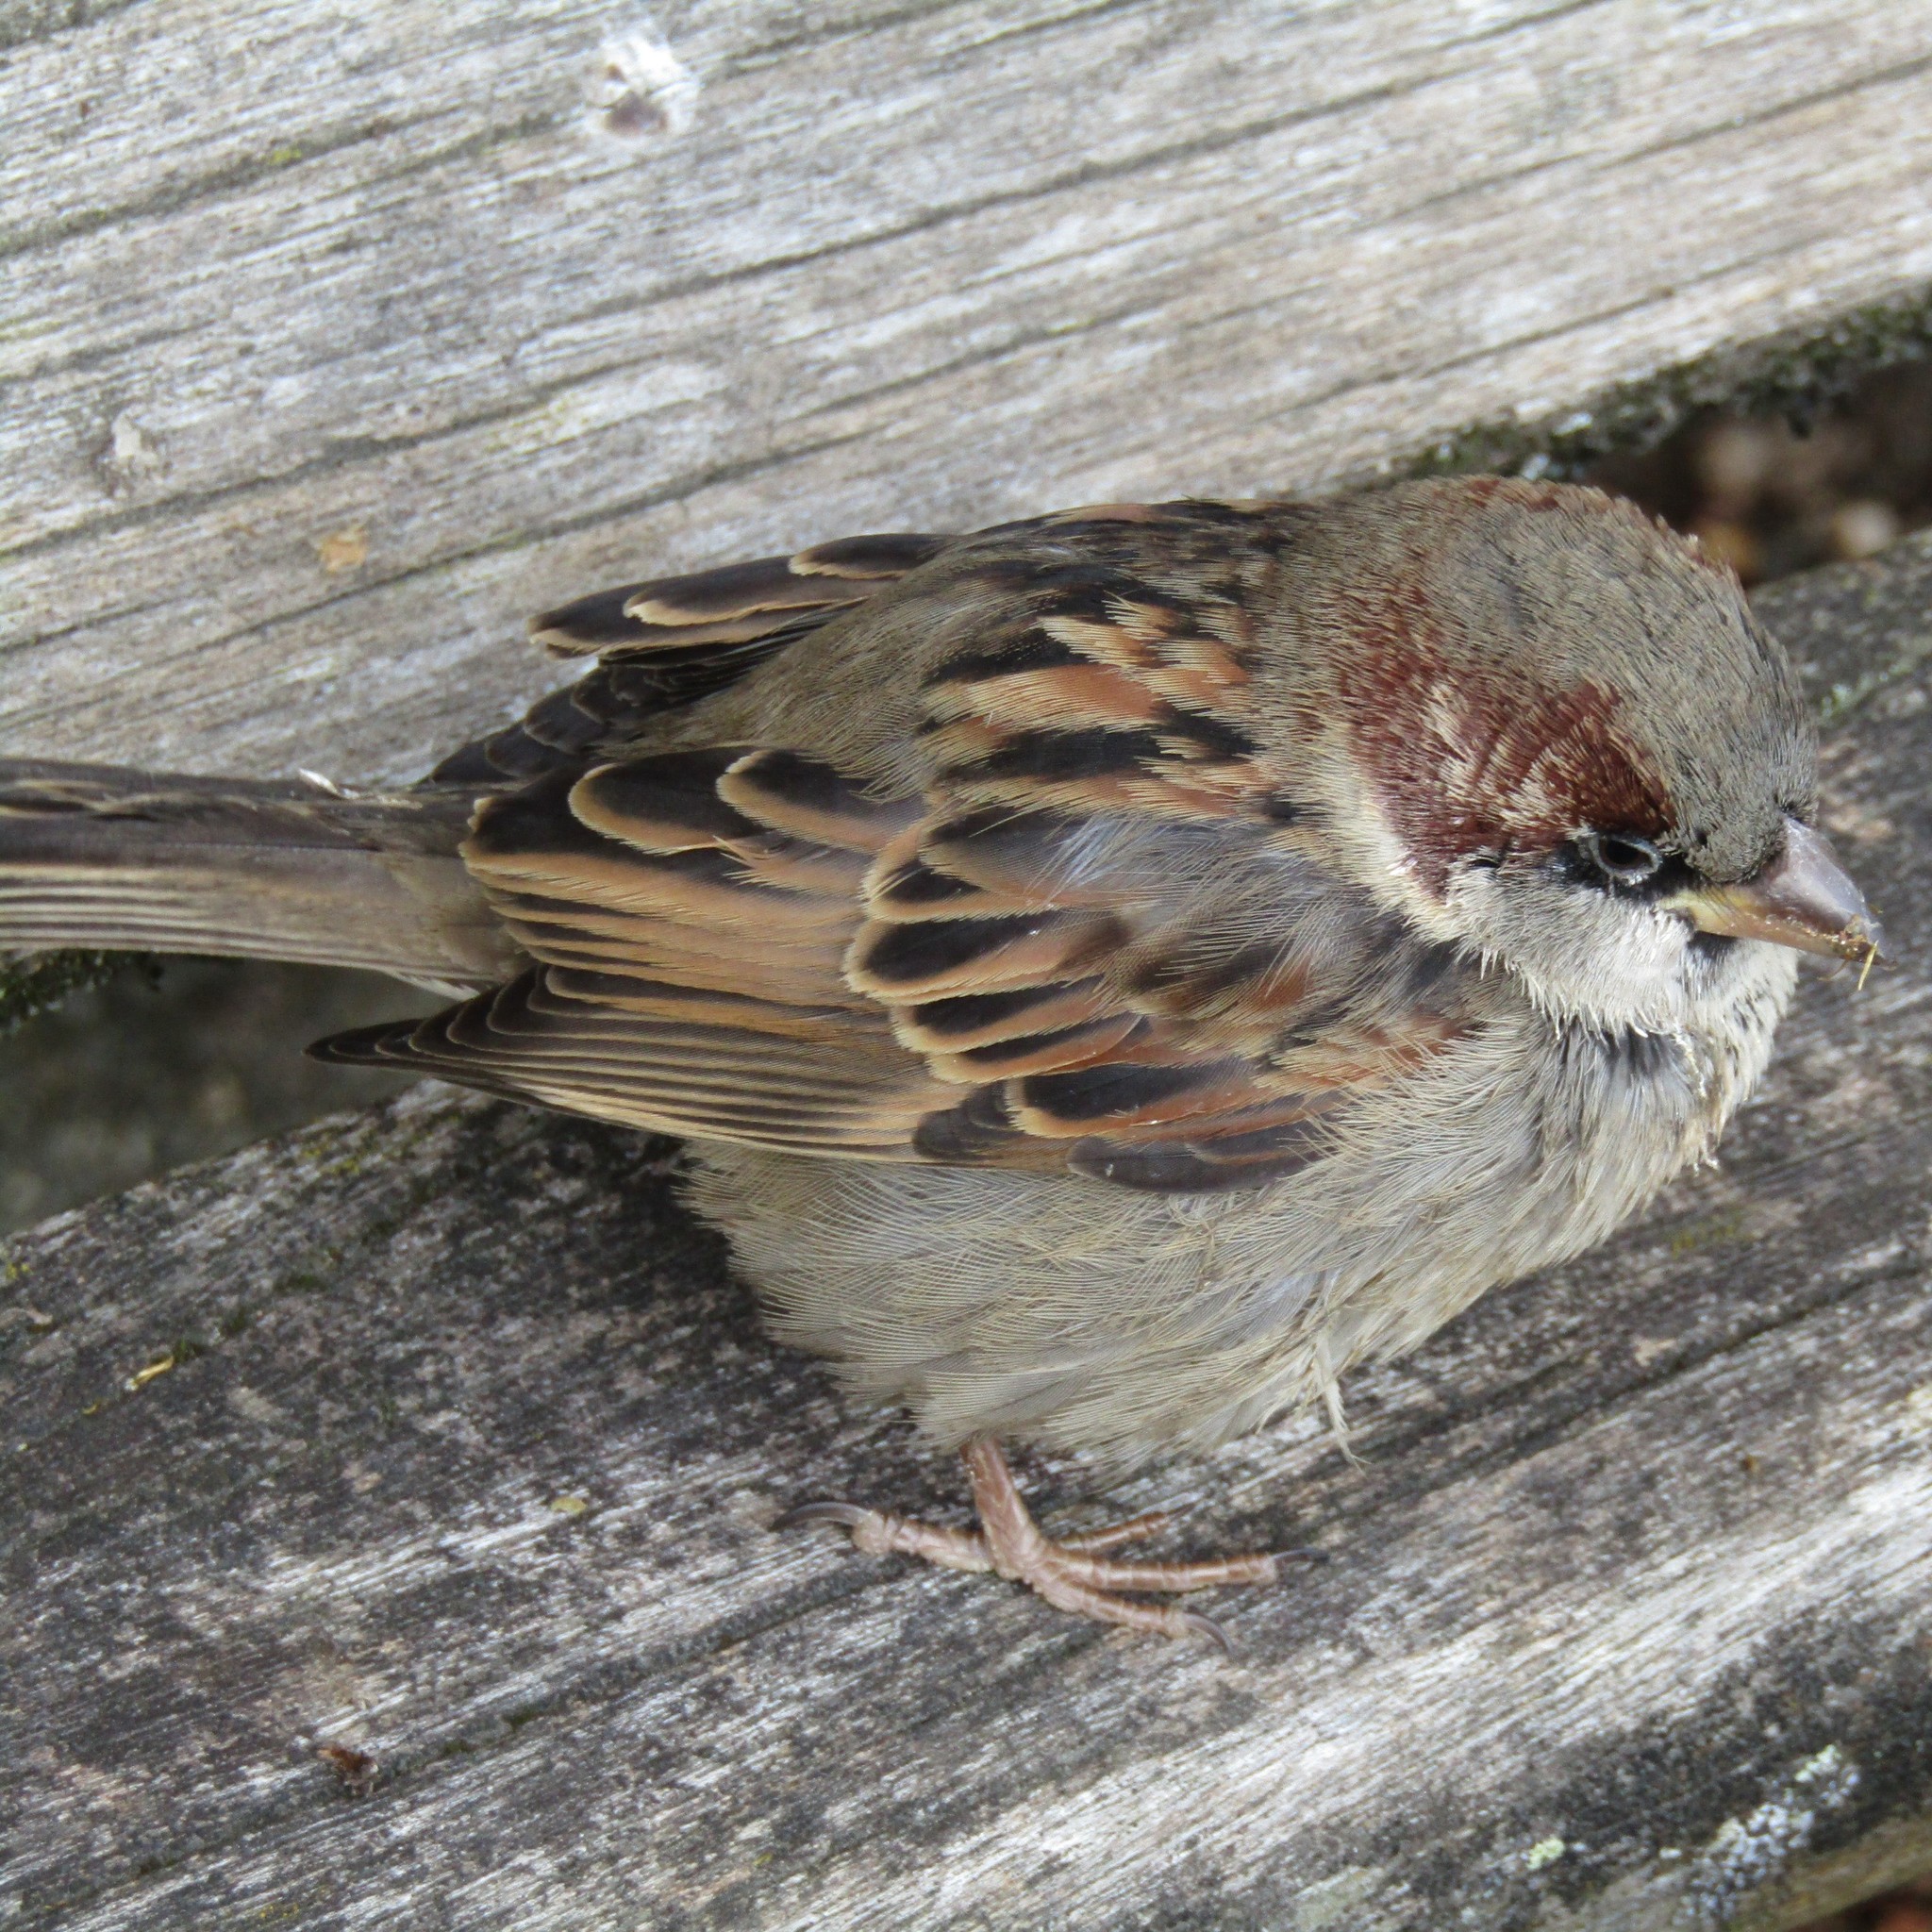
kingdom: Animalia
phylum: Chordata
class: Aves
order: Passeriformes
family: Passeridae
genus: Passer
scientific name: Passer domesticus
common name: House sparrow
